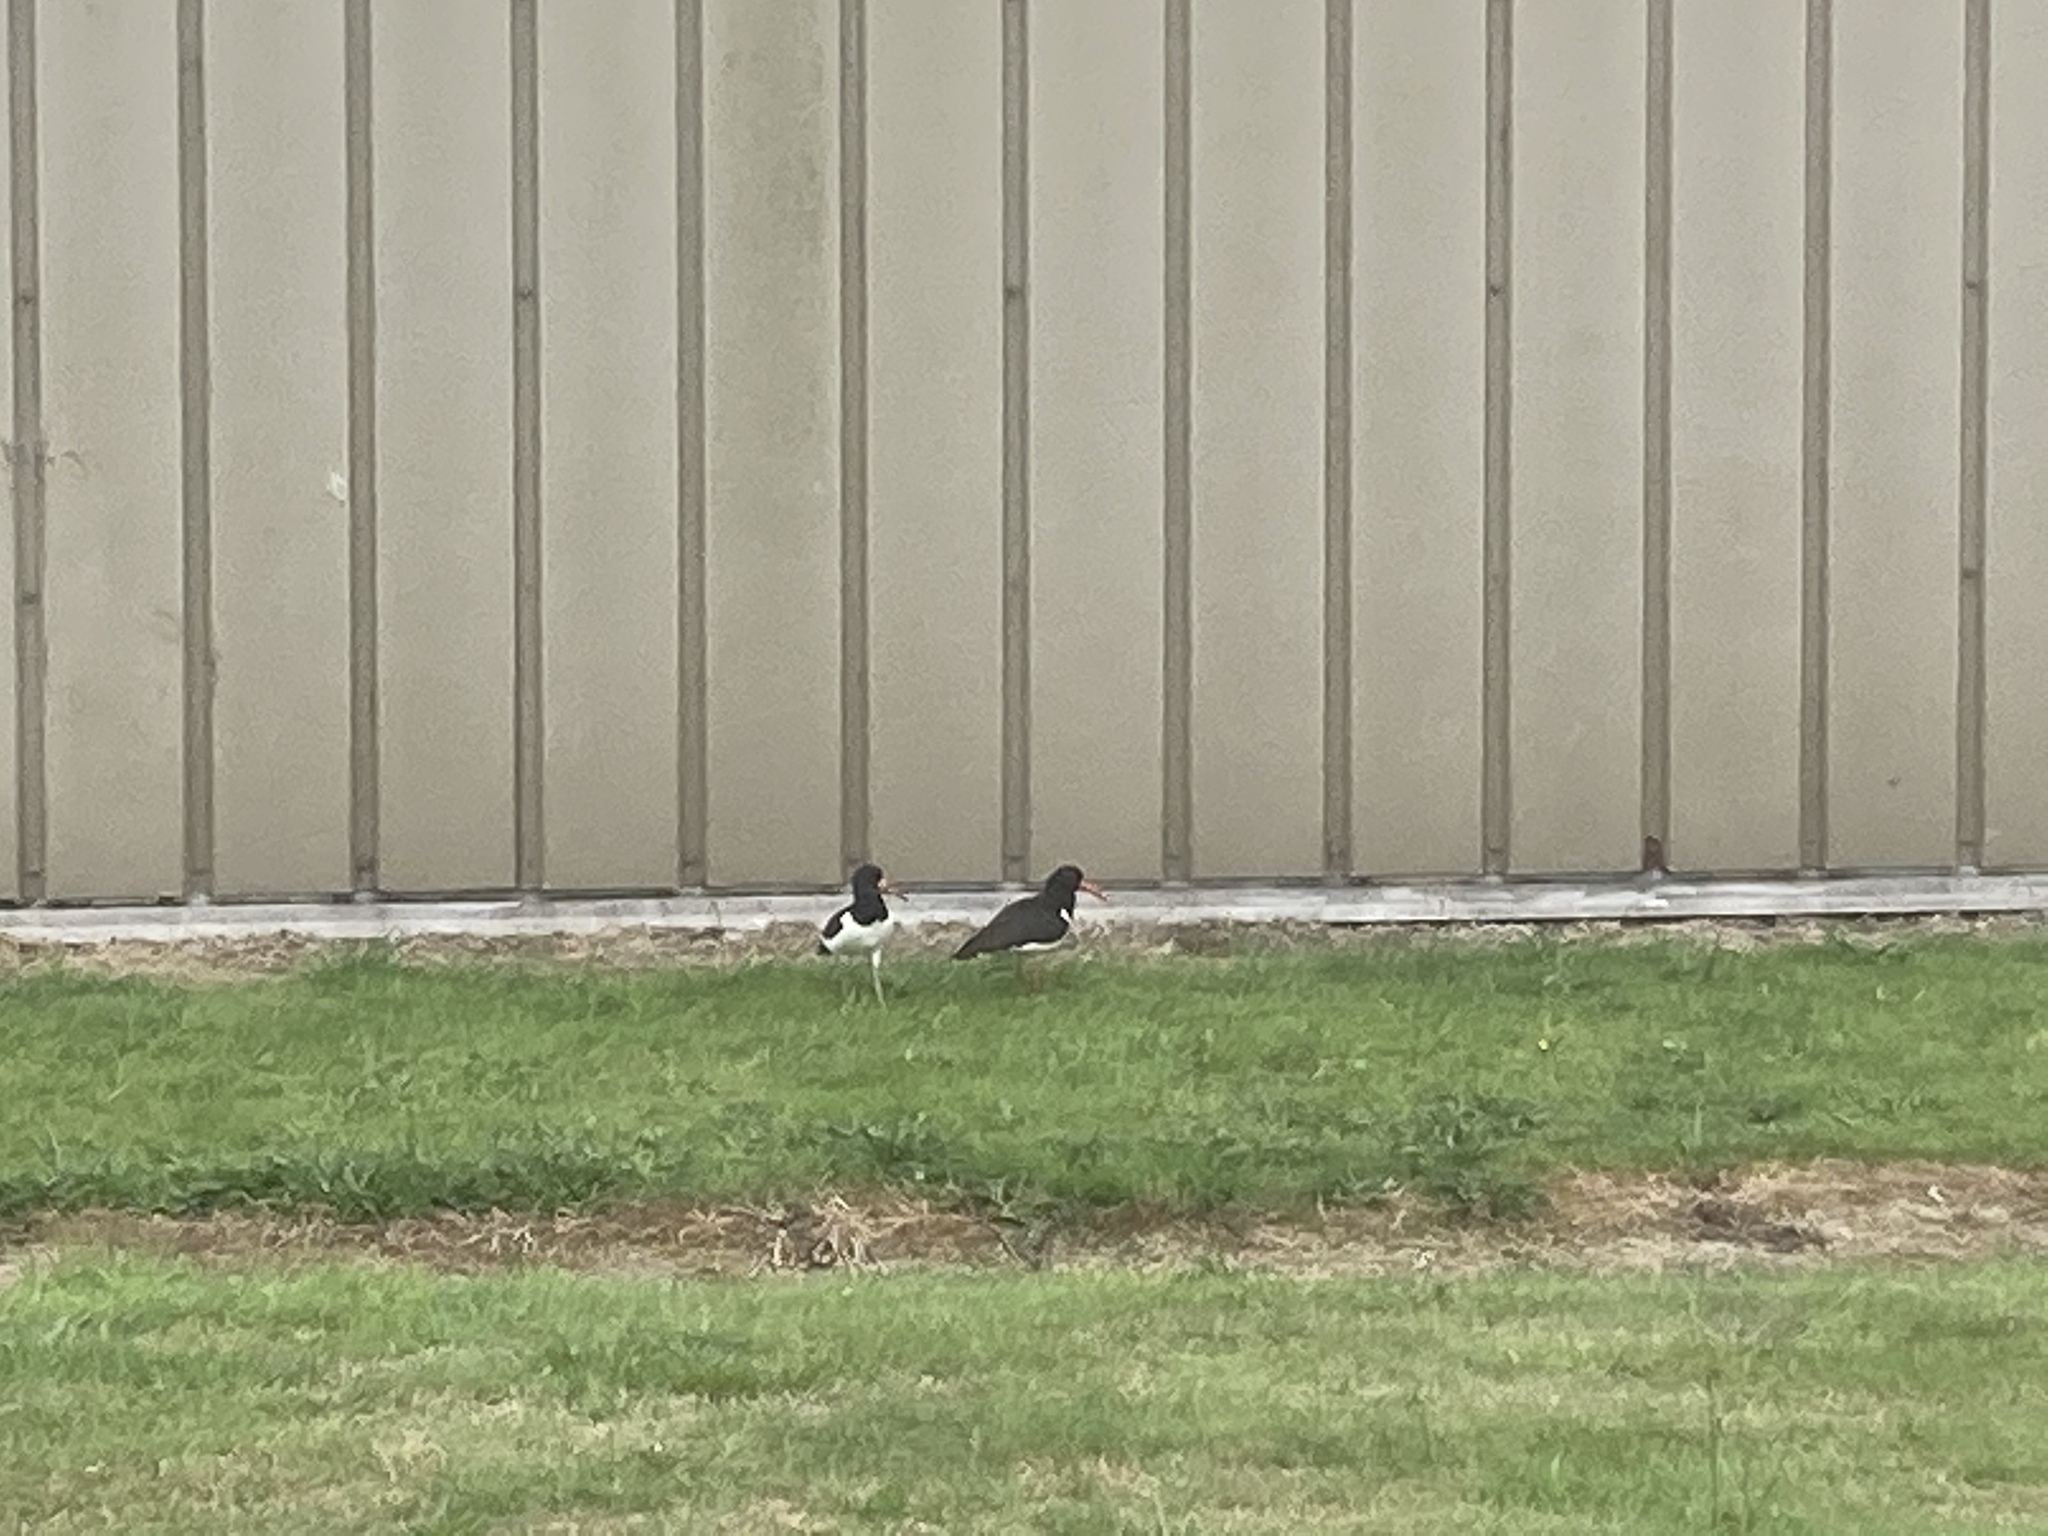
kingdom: Animalia
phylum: Chordata
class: Aves
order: Charadriiformes
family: Haematopodidae
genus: Haematopus
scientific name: Haematopus ostralegus
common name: Eurasian oystercatcher
